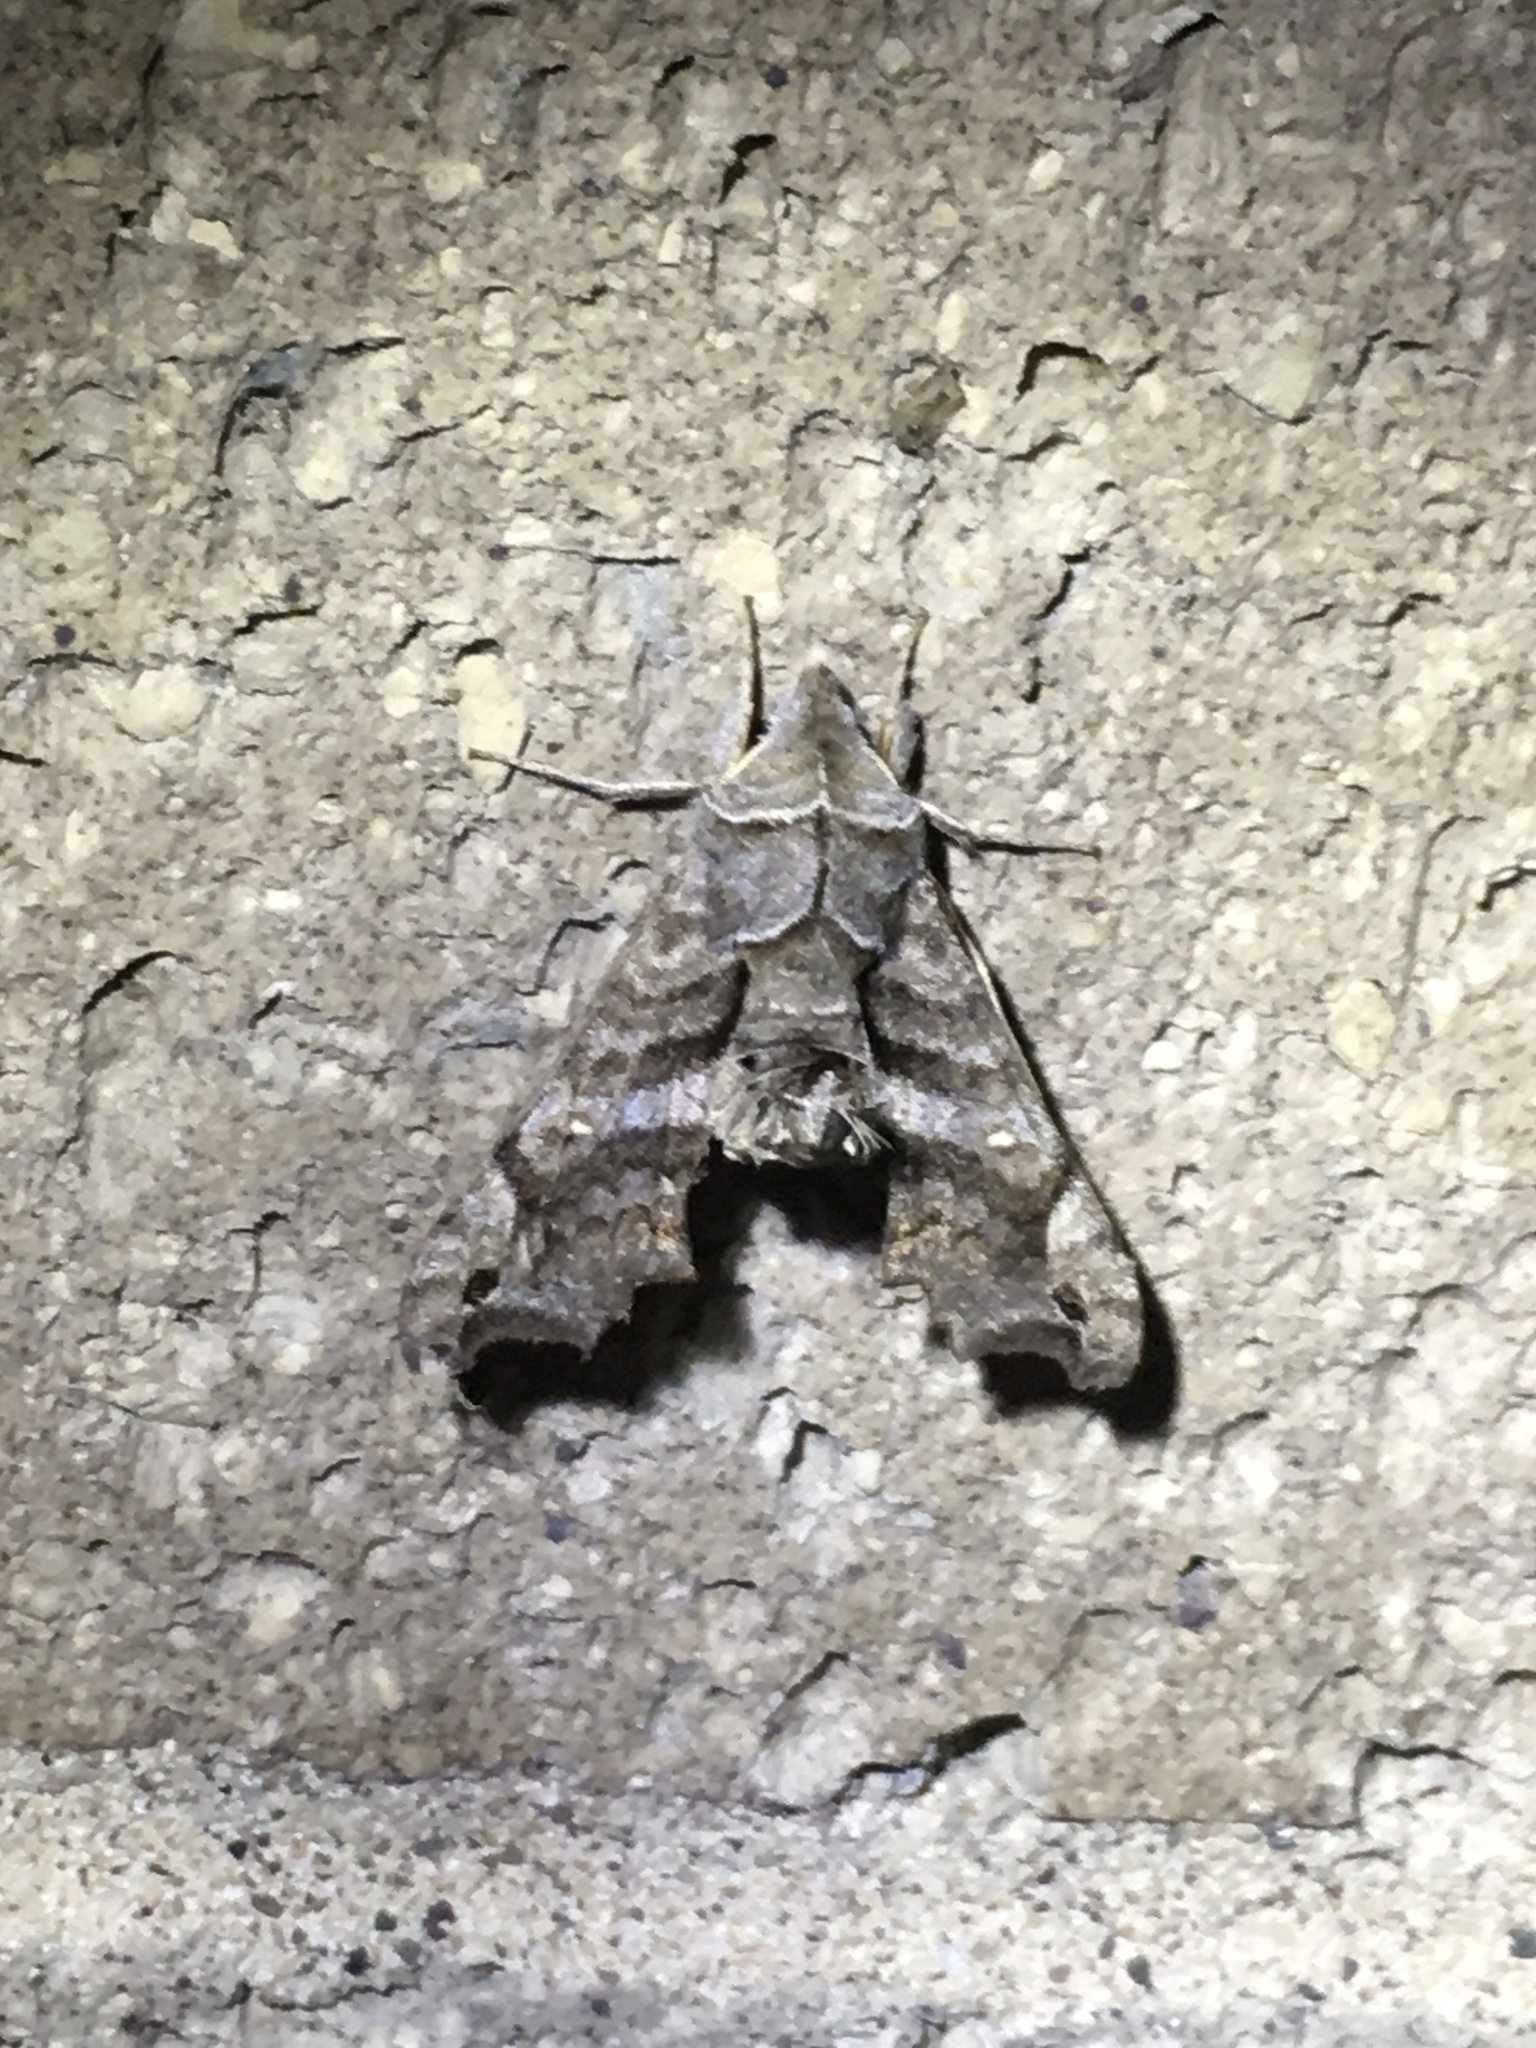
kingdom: Animalia
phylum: Arthropoda
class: Insecta
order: Lepidoptera
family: Sphingidae
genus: Deidamia
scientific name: Deidamia inscriptum
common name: Lettered sphinx
